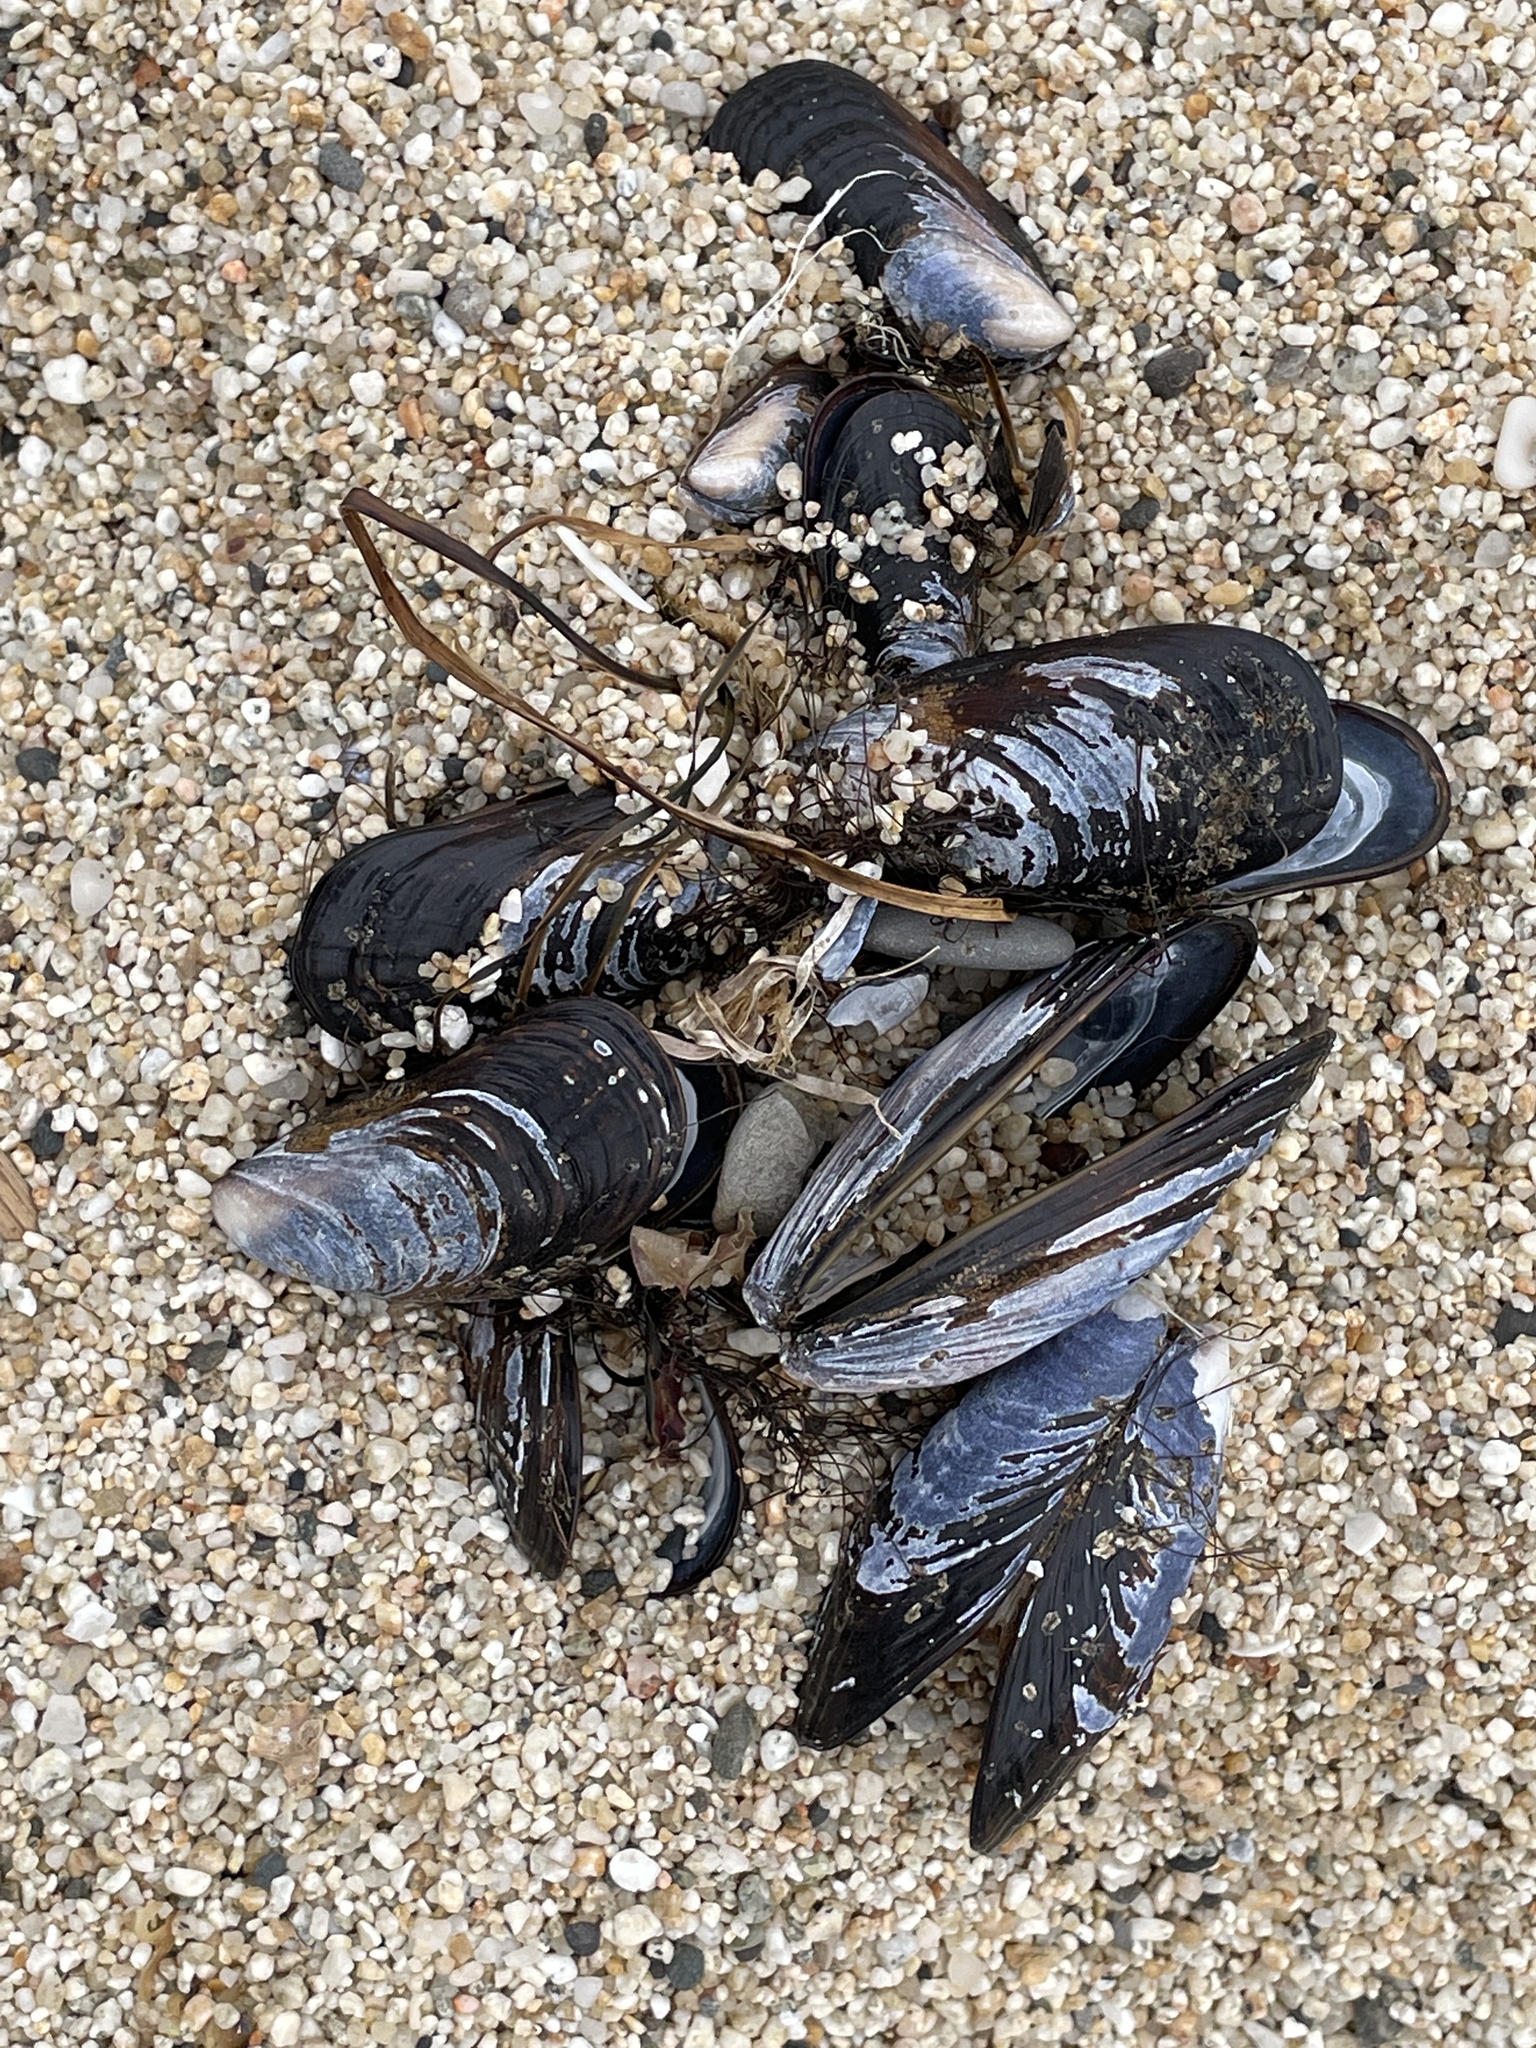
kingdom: Animalia
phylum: Mollusca
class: Bivalvia
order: Mytilida
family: Mytilidae
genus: Mytilus
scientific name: Mytilus californianus
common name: California mussel
